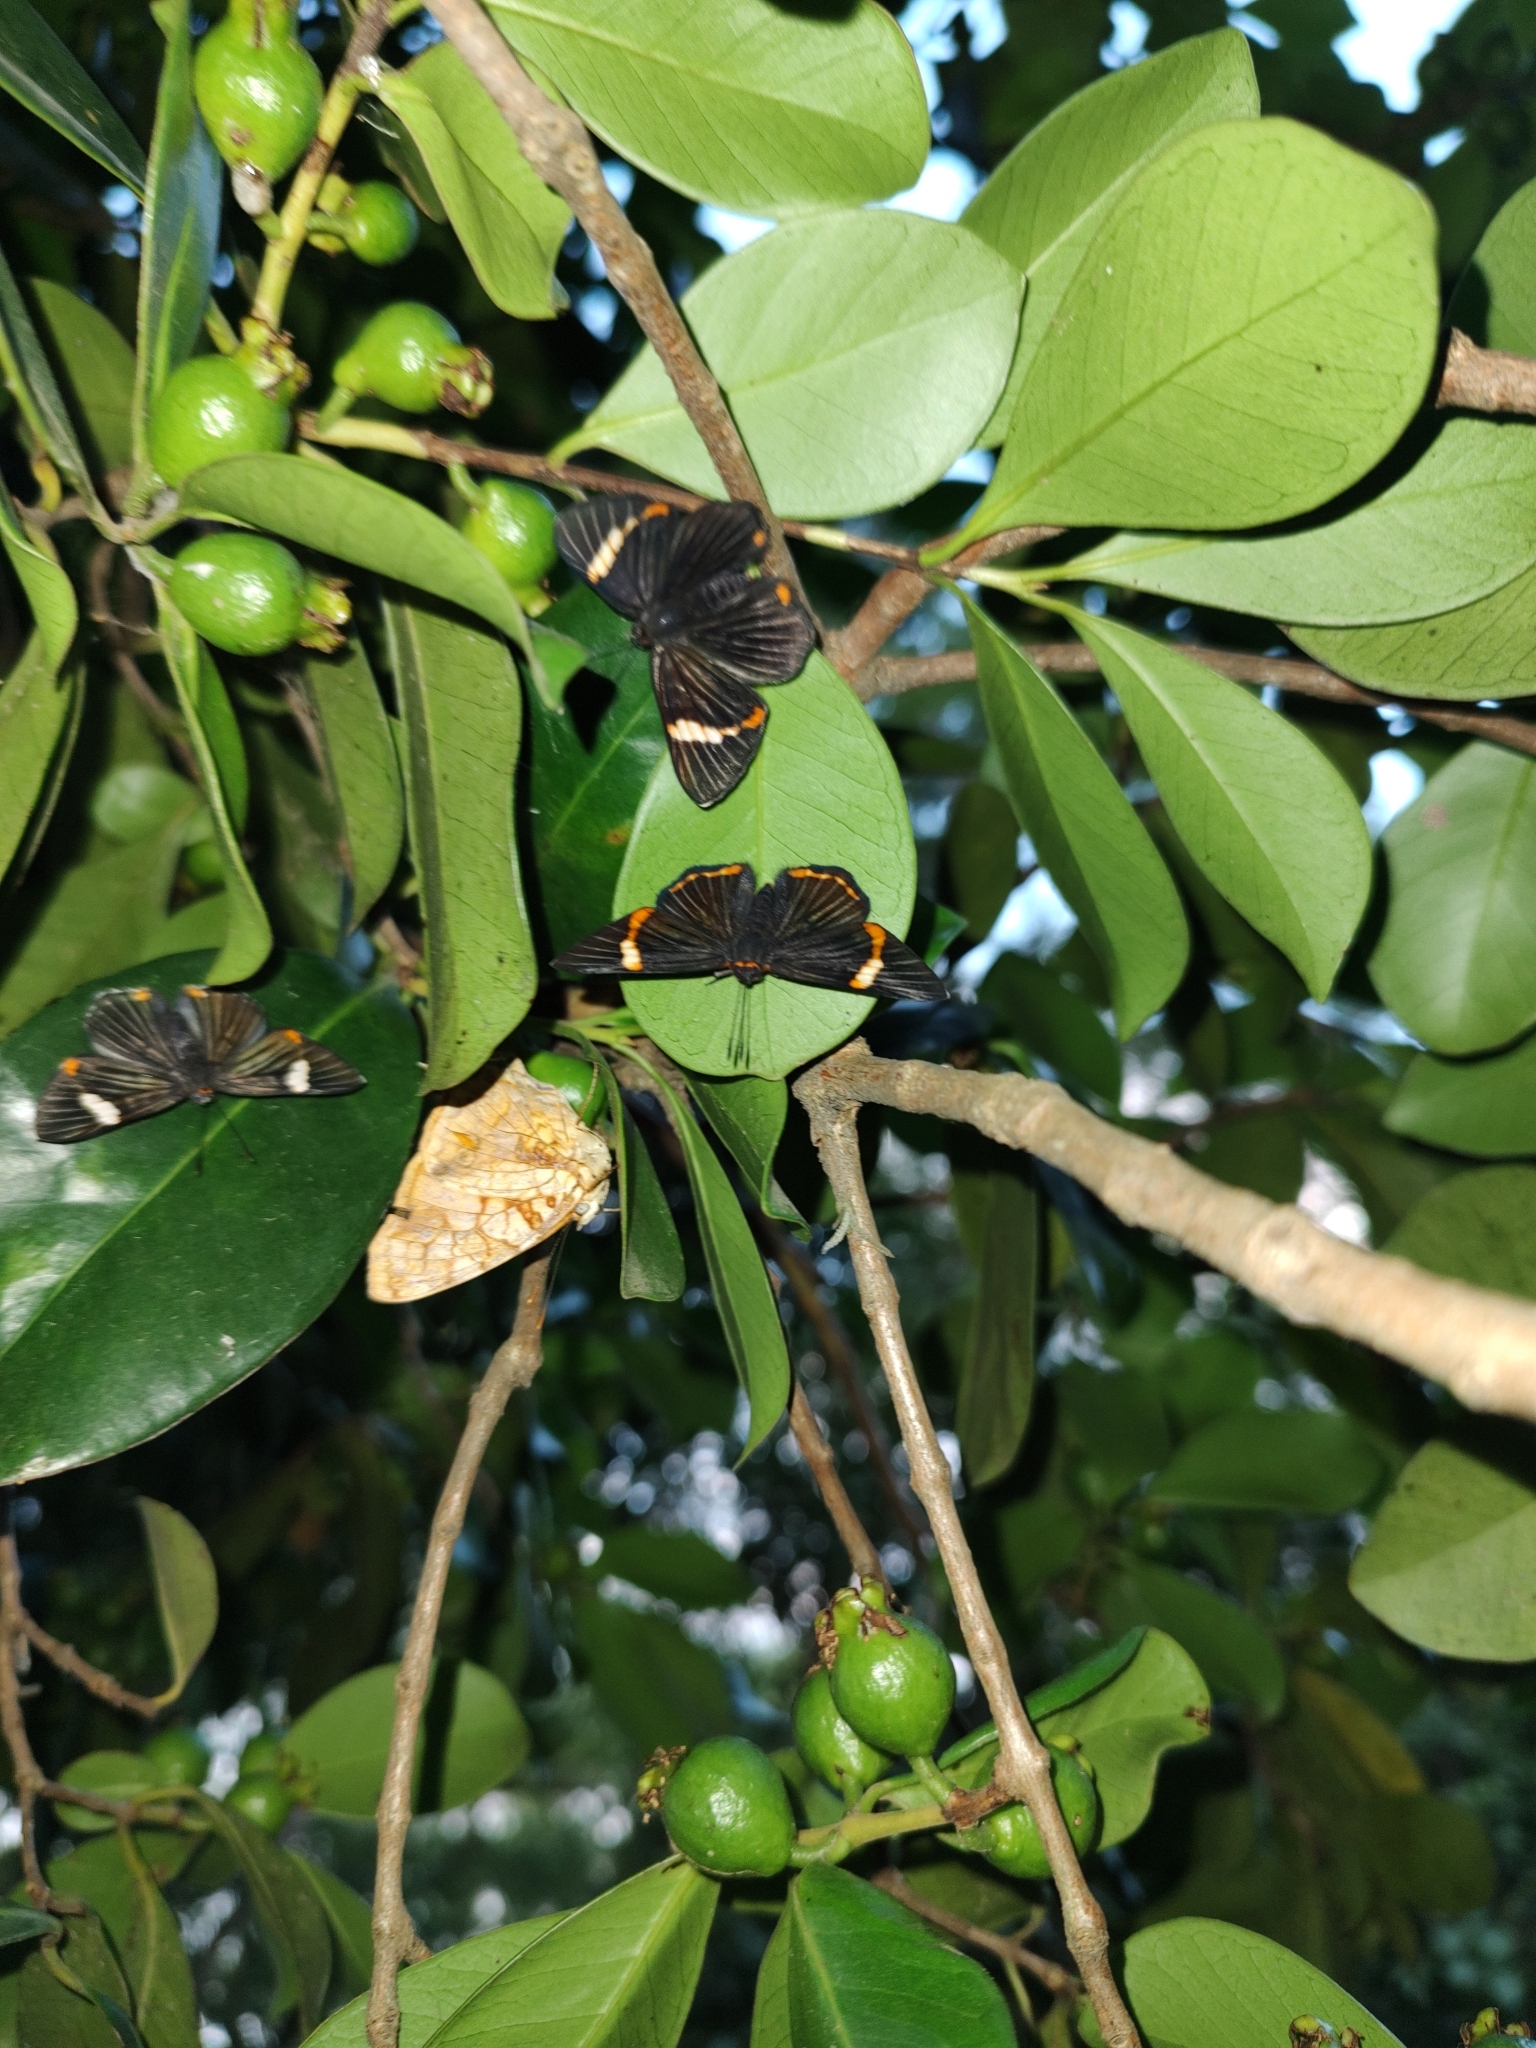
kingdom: Animalia
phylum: Arthropoda
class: Insecta
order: Lepidoptera
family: Riodinidae
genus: Riodina
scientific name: Riodina lycisca
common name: Lycisca metalmark
